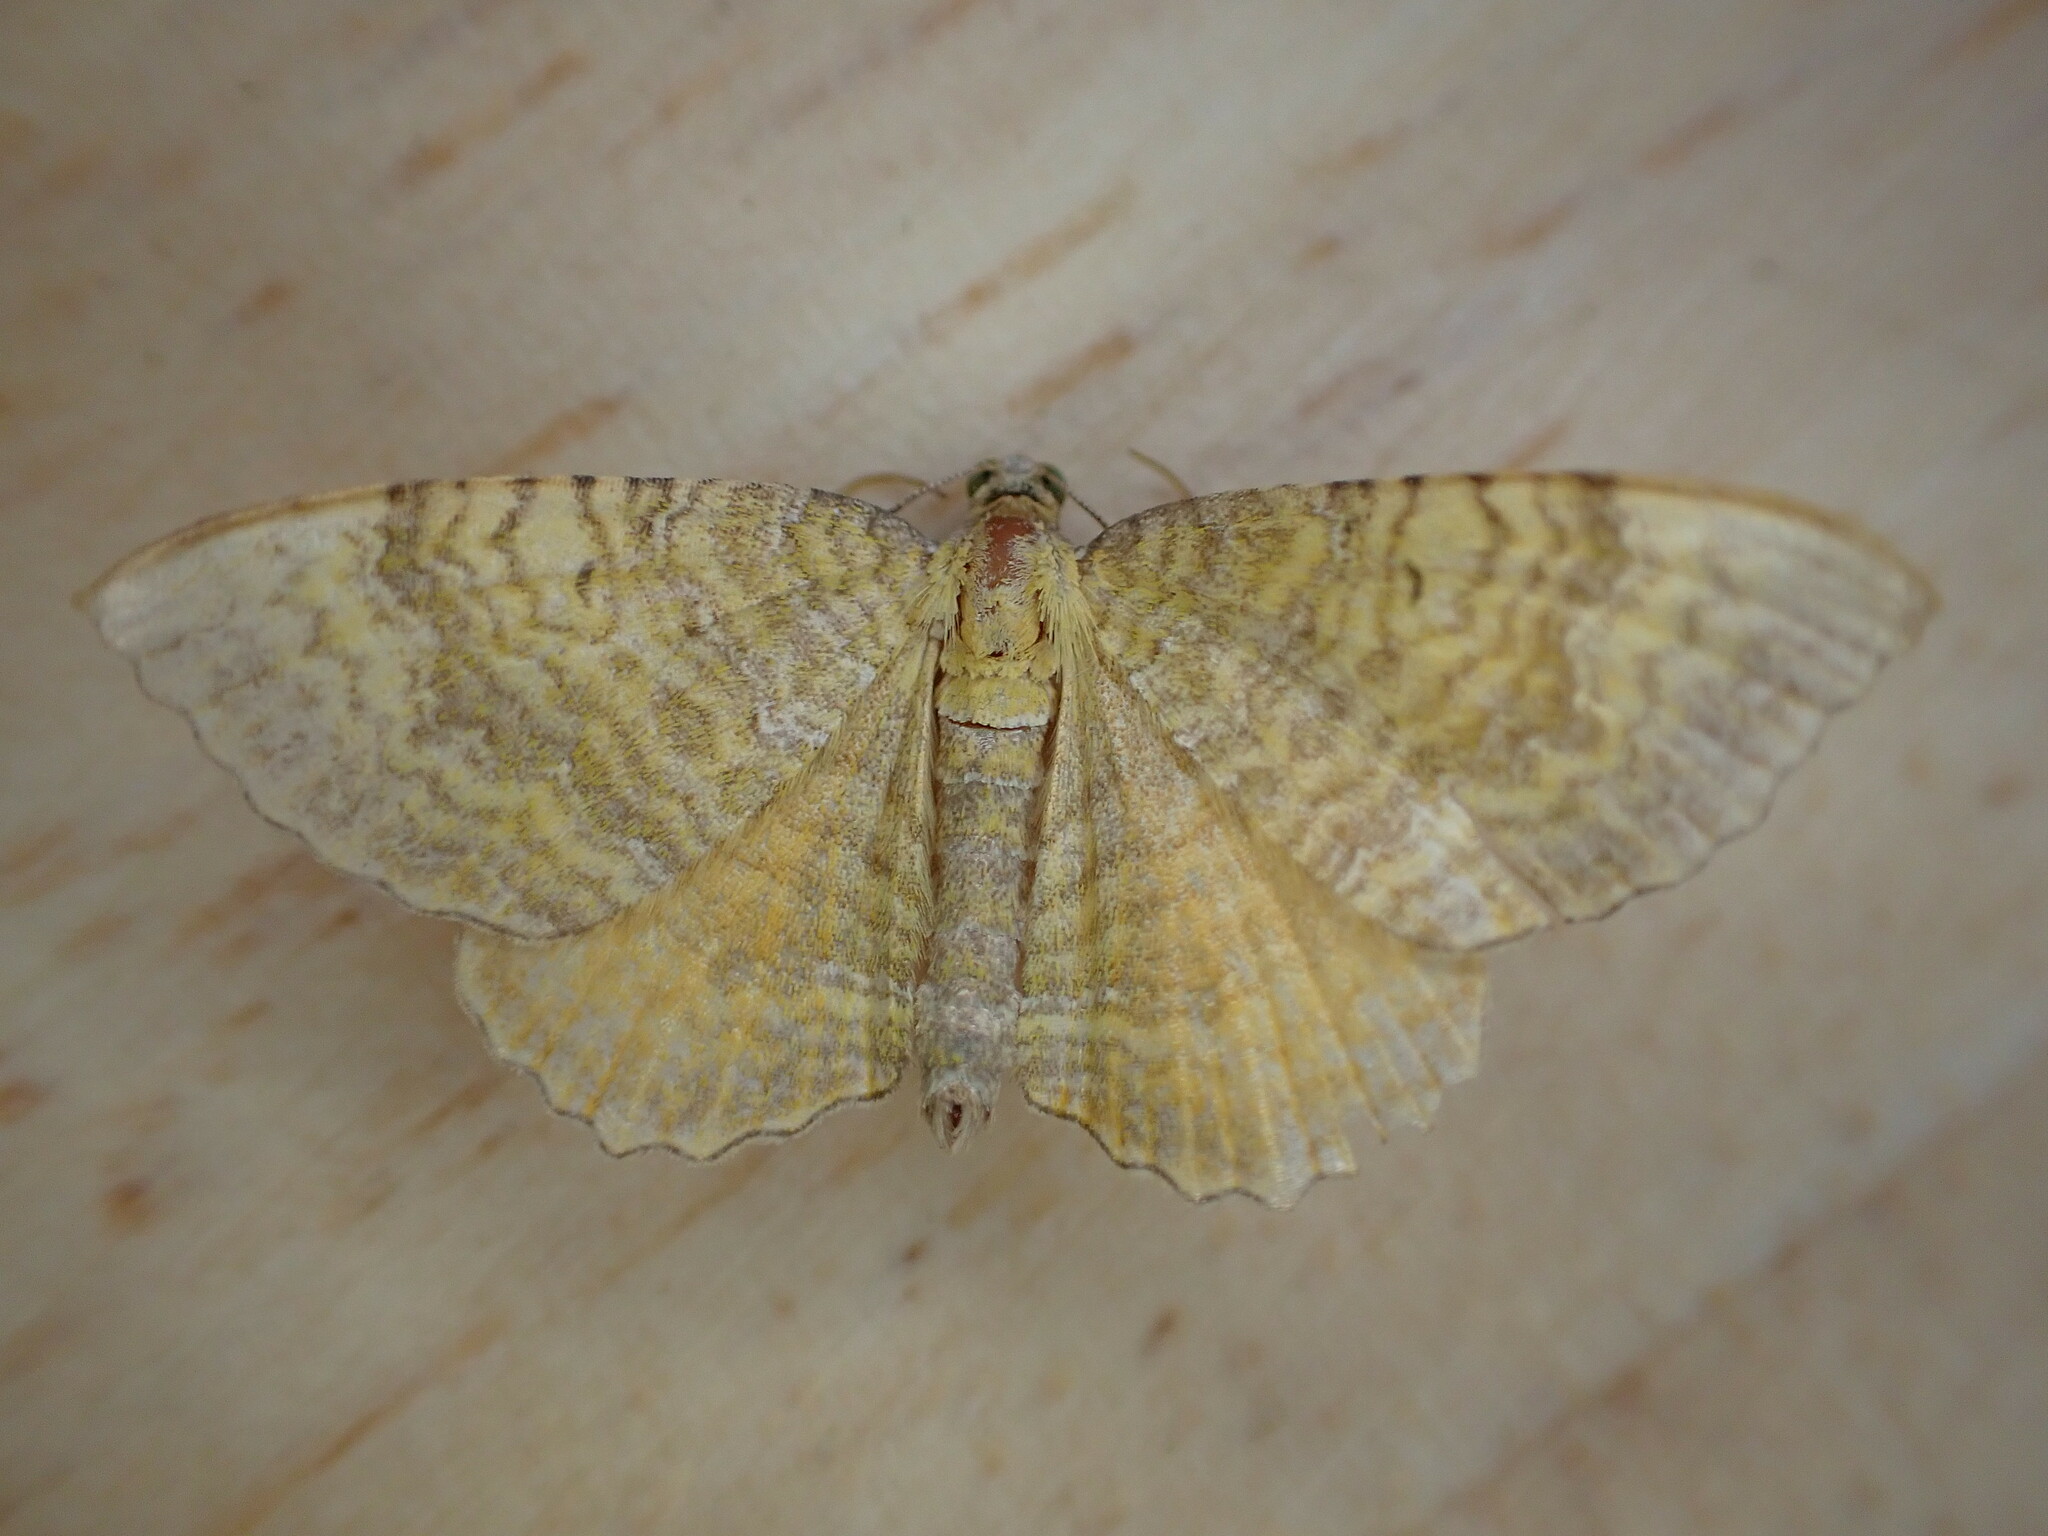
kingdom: Animalia
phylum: Arthropoda
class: Insecta
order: Lepidoptera
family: Geometridae
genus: Camptogramma
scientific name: Camptogramma bilineata
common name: Yellow shell
